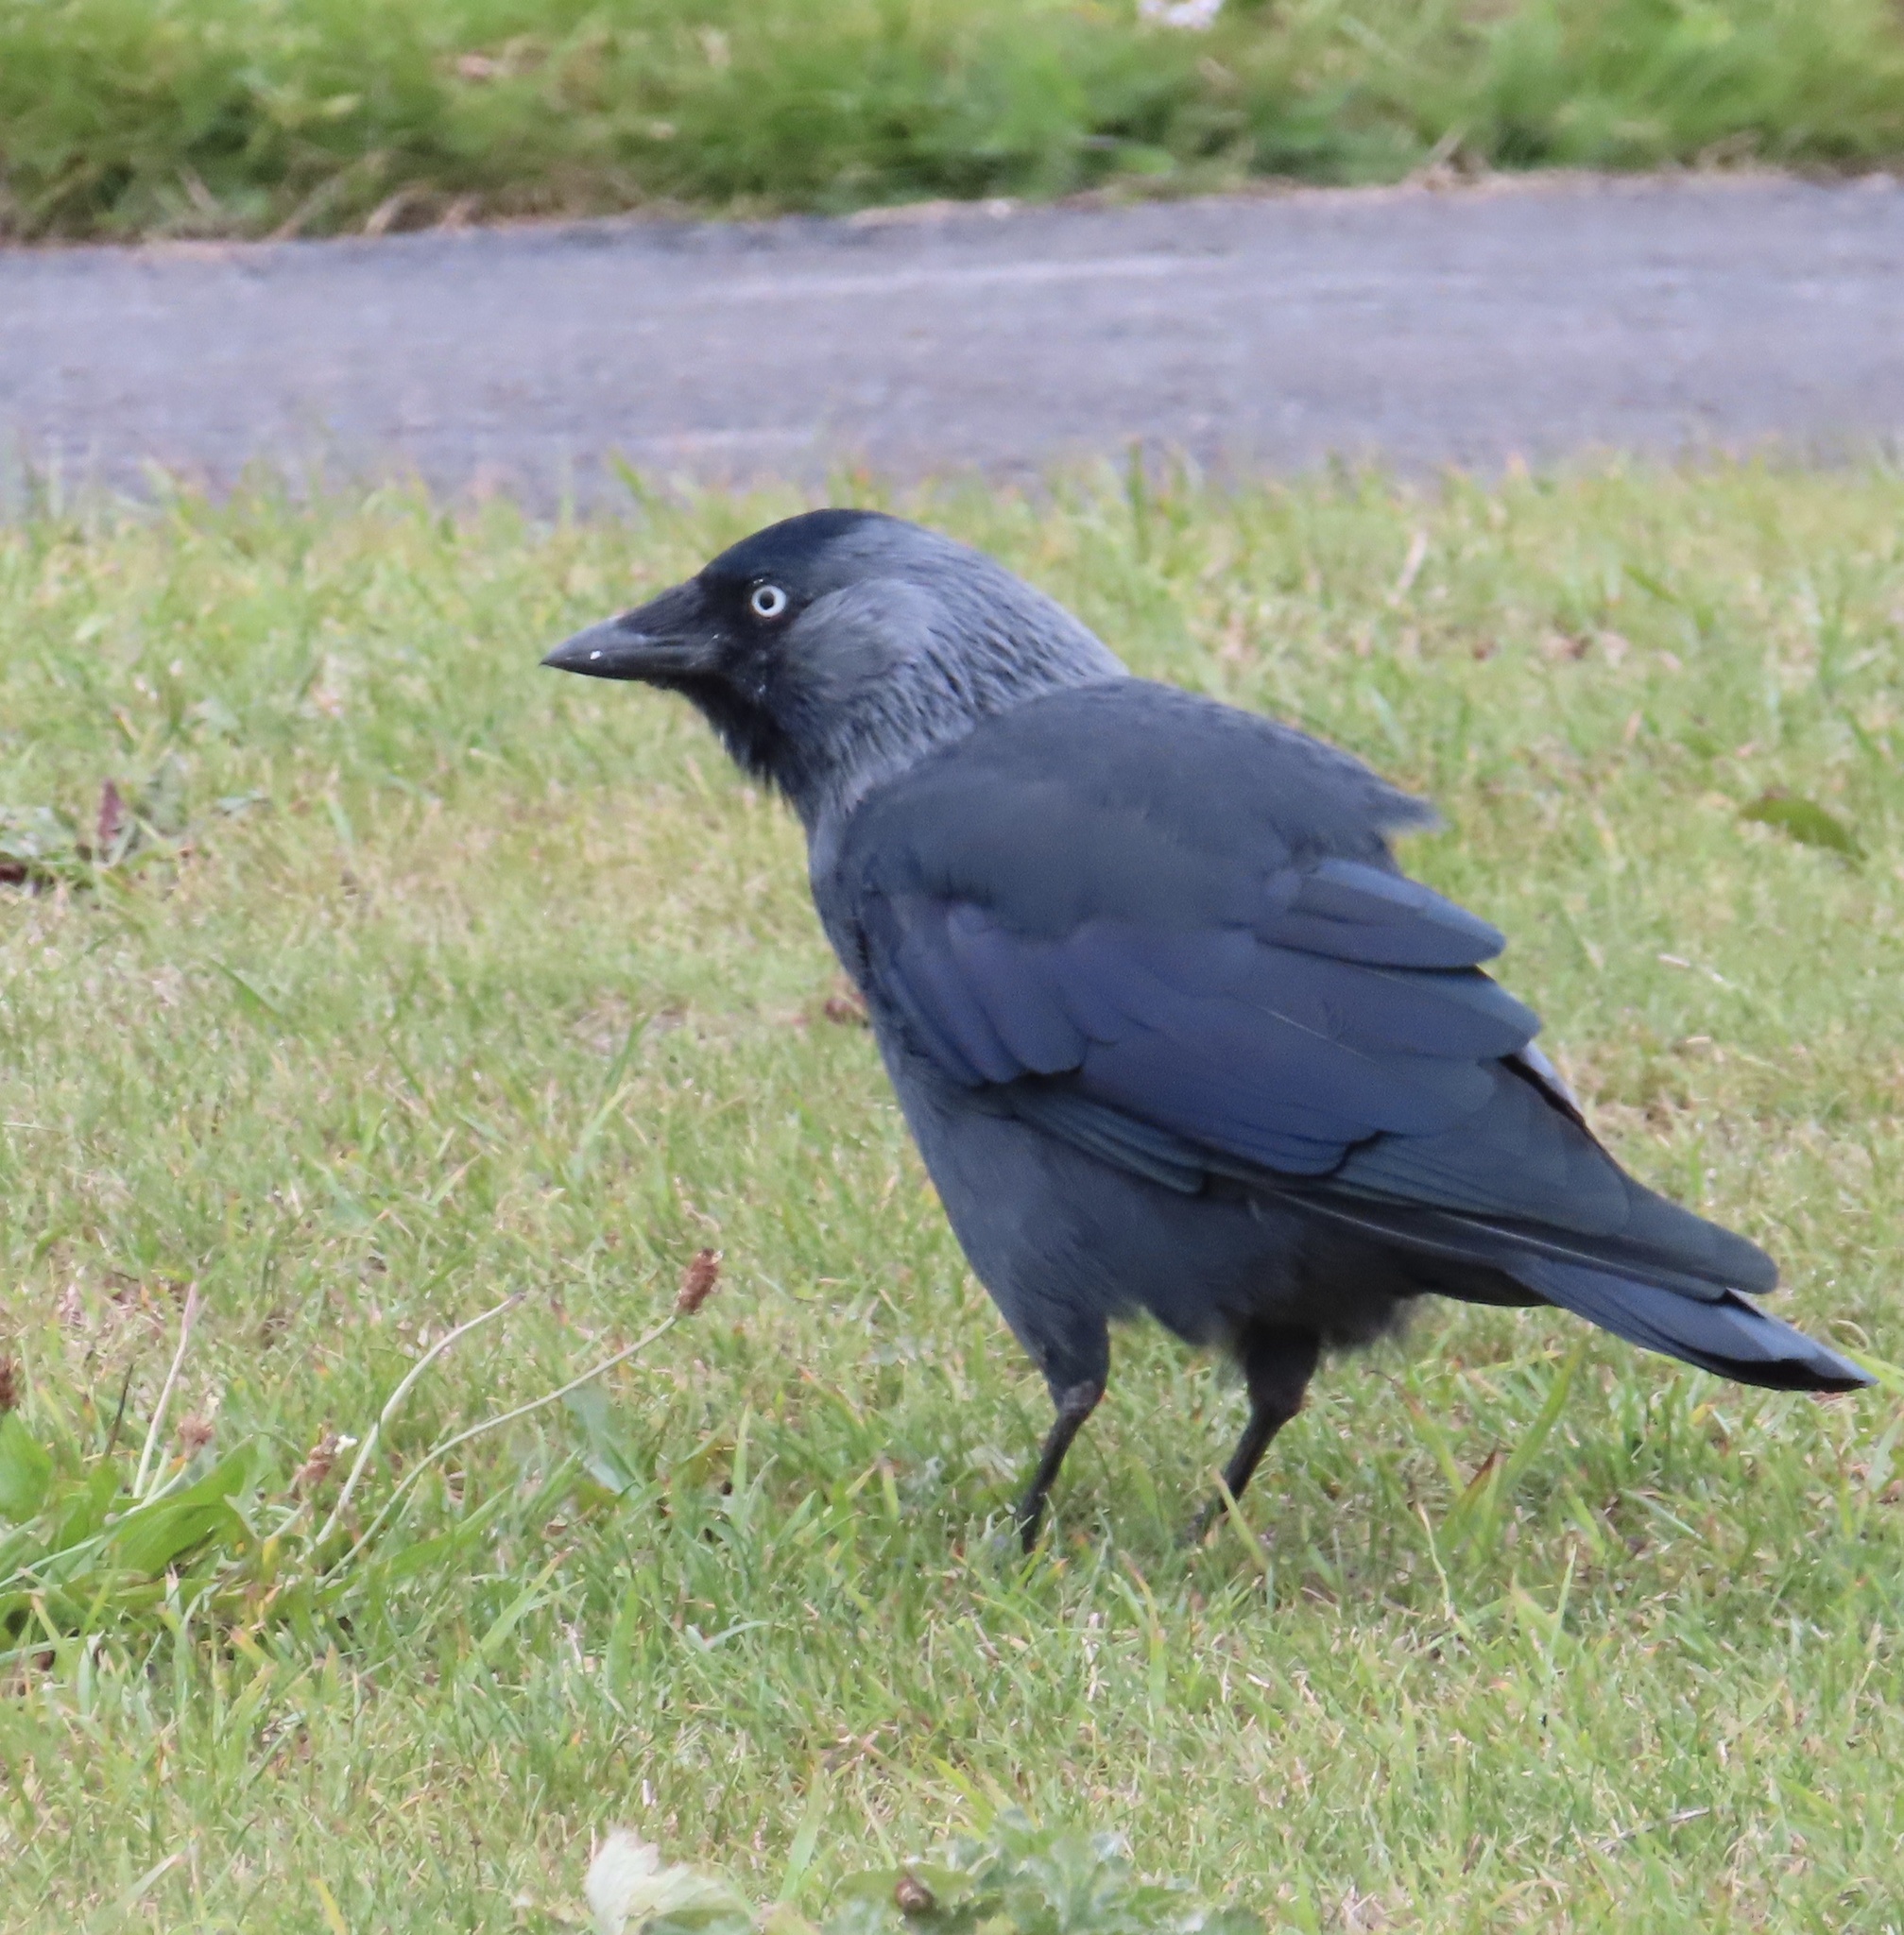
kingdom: Animalia
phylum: Chordata
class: Aves
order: Passeriformes
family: Corvidae
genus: Coloeus
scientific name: Coloeus monedula
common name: Western jackdaw
